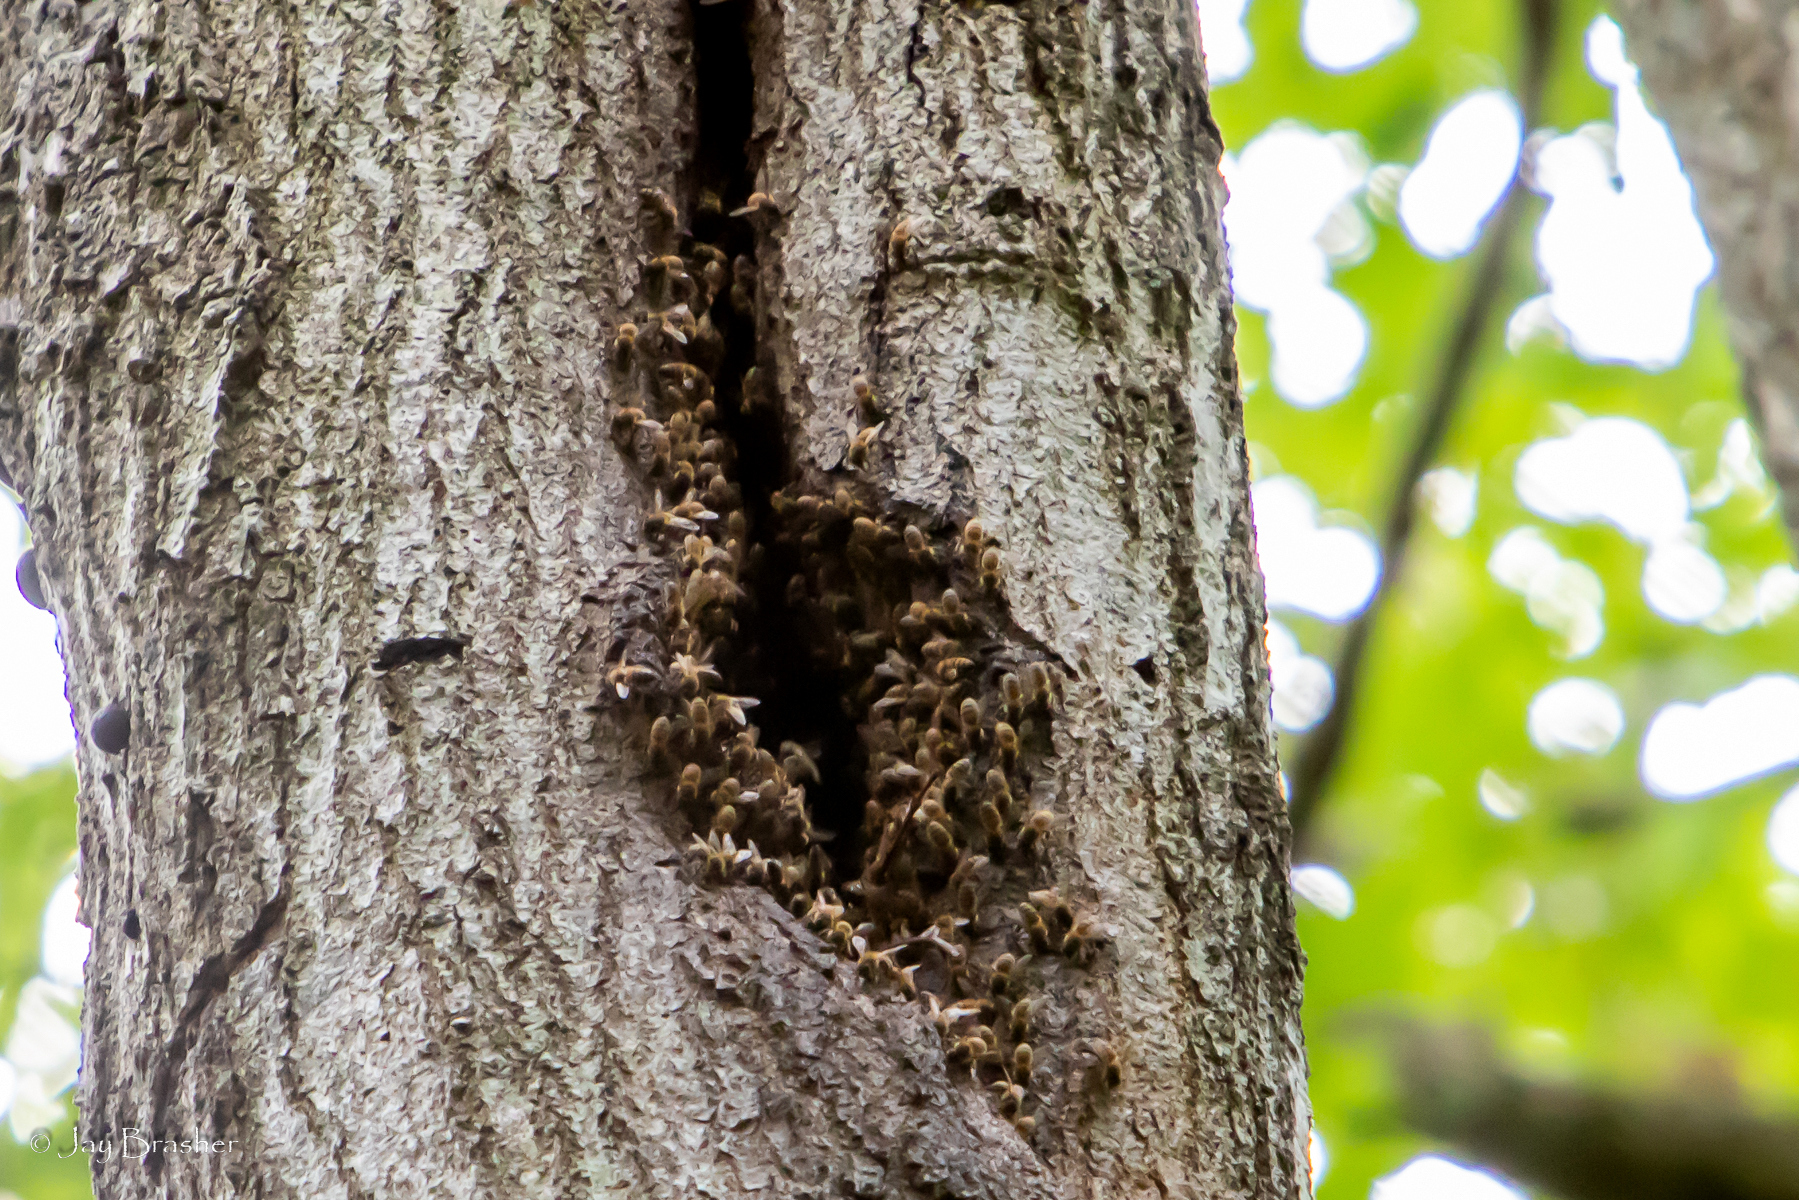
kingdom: Animalia
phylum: Arthropoda
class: Insecta
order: Hymenoptera
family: Apidae
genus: Apis
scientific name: Apis mellifera
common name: Honey bee
